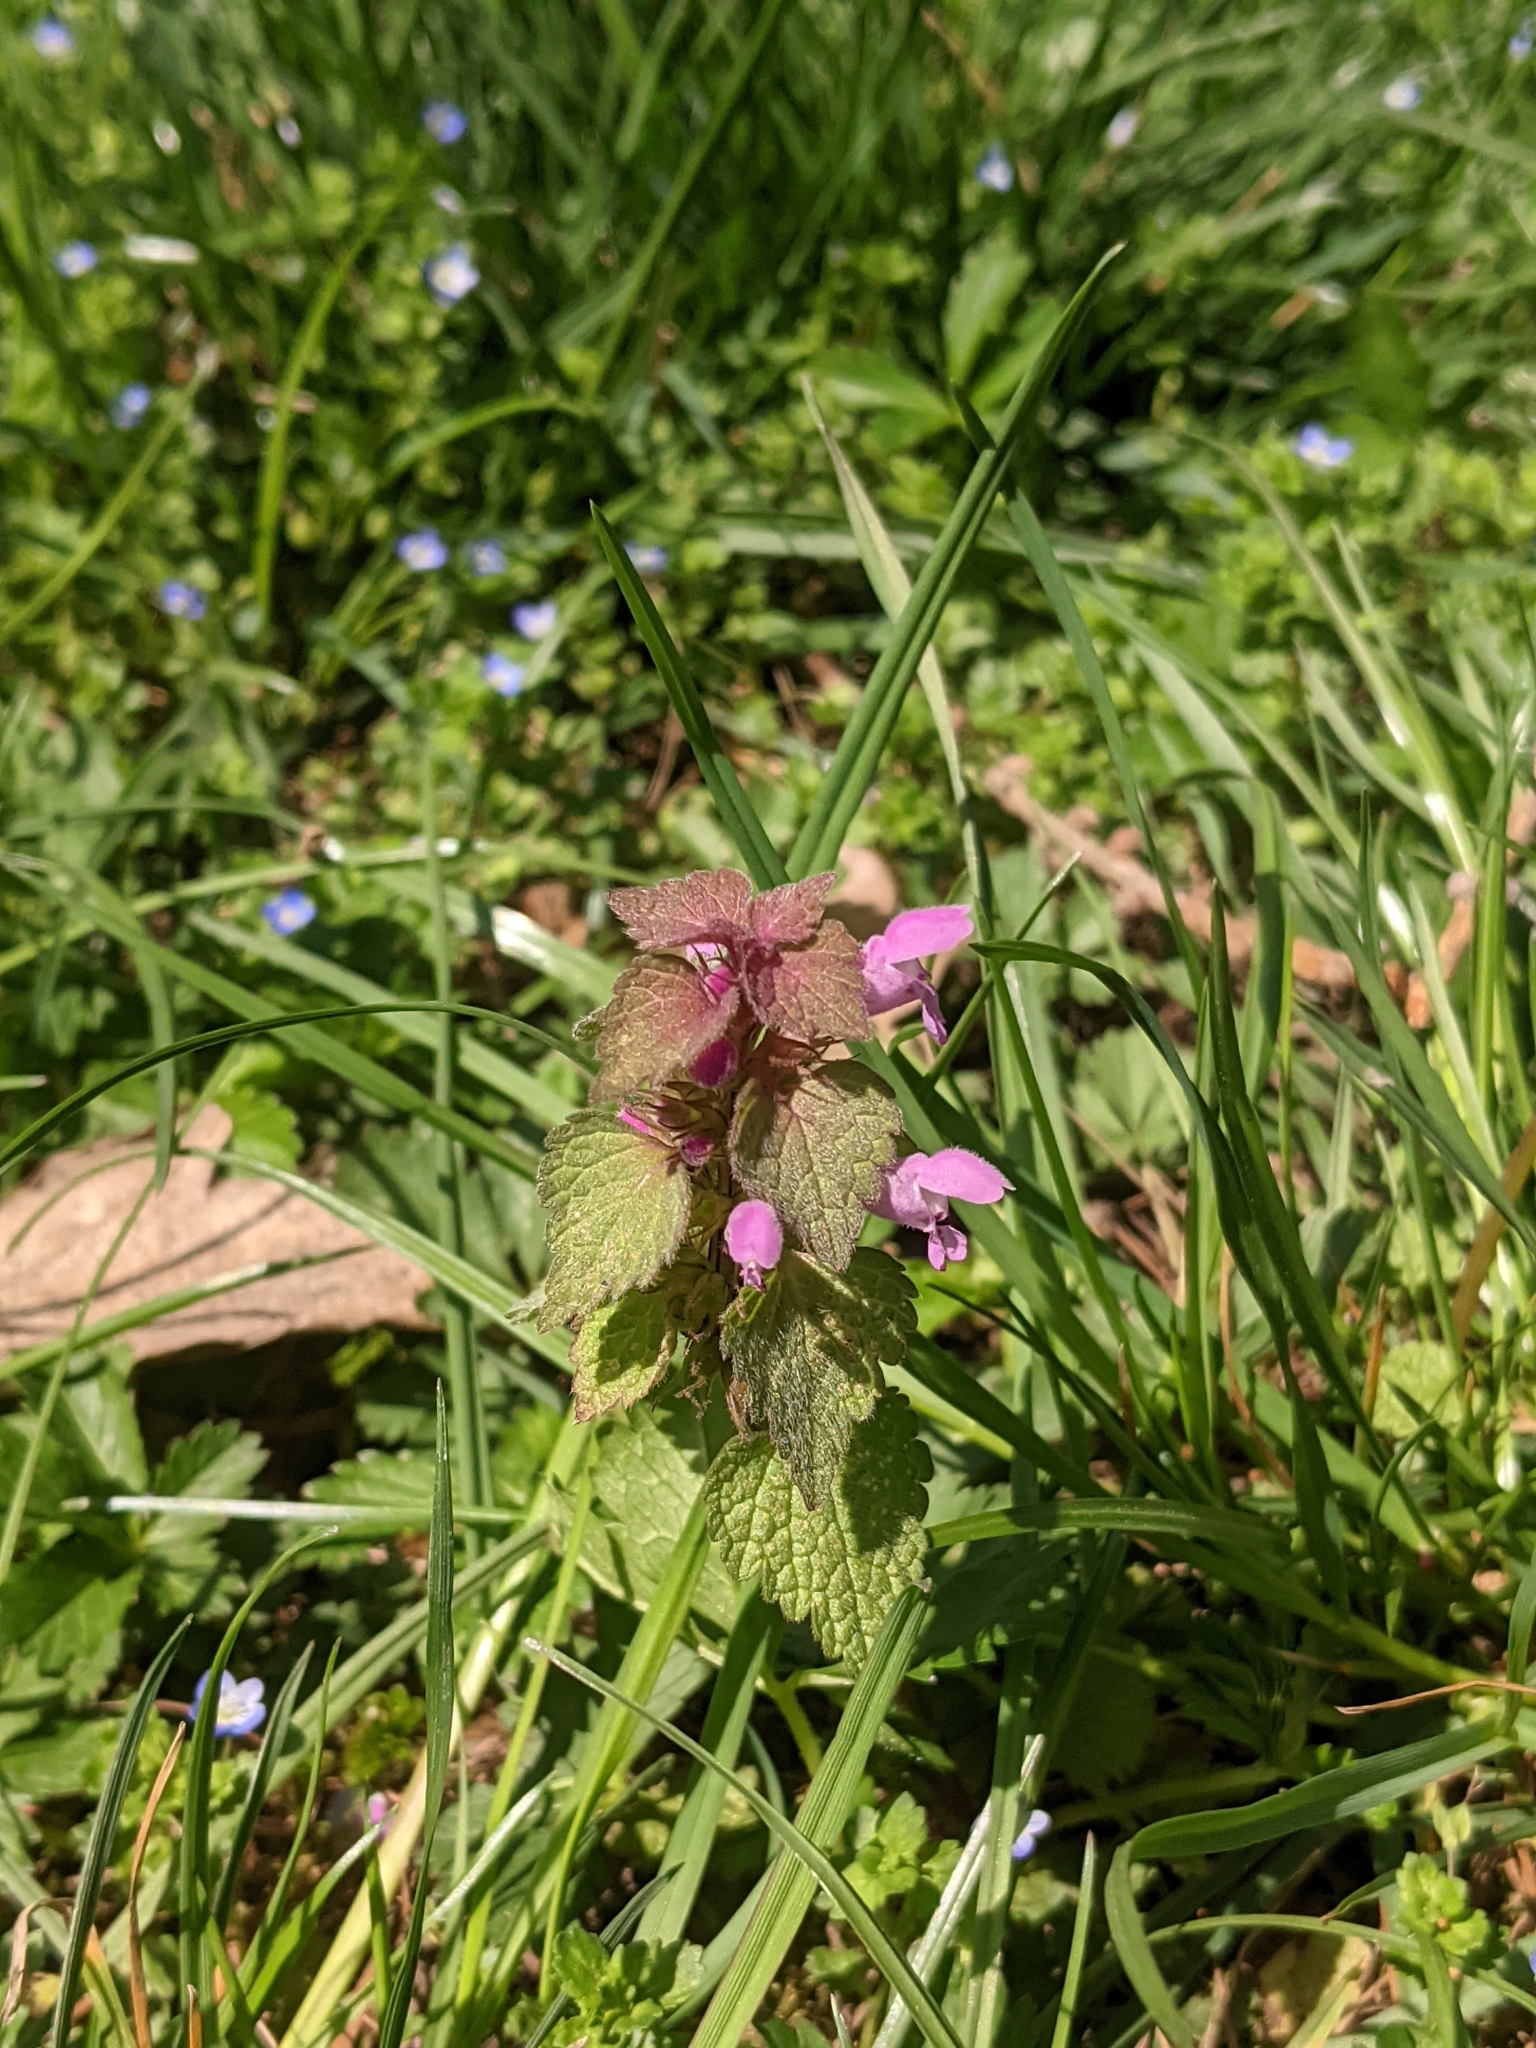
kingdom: Plantae
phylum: Tracheophyta
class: Magnoliopsida
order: Lamiales
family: Lamiaceae
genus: Lamium
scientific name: Lamium purpureum
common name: Red dead-nettle
